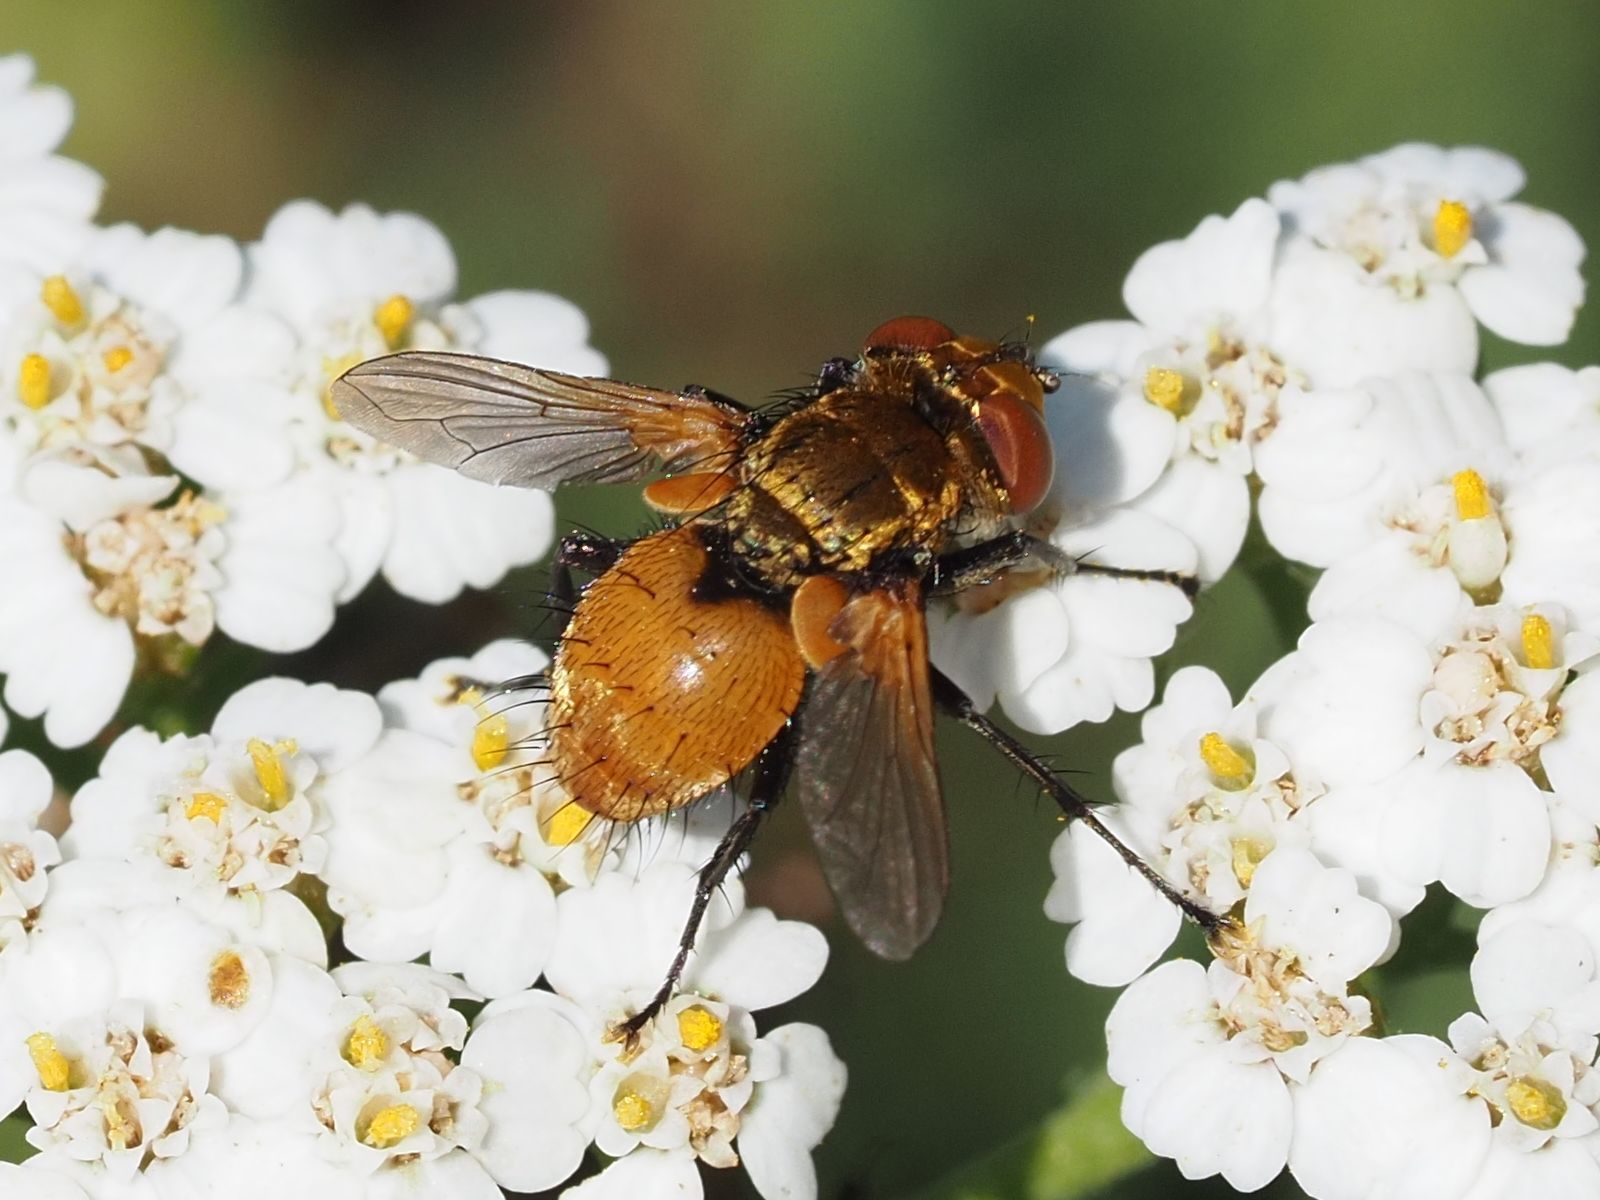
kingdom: Animalia
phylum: Arthropoda
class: Insecta
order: Diptera
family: Tachinidae
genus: Eliozeta
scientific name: Eliozeta helluo
